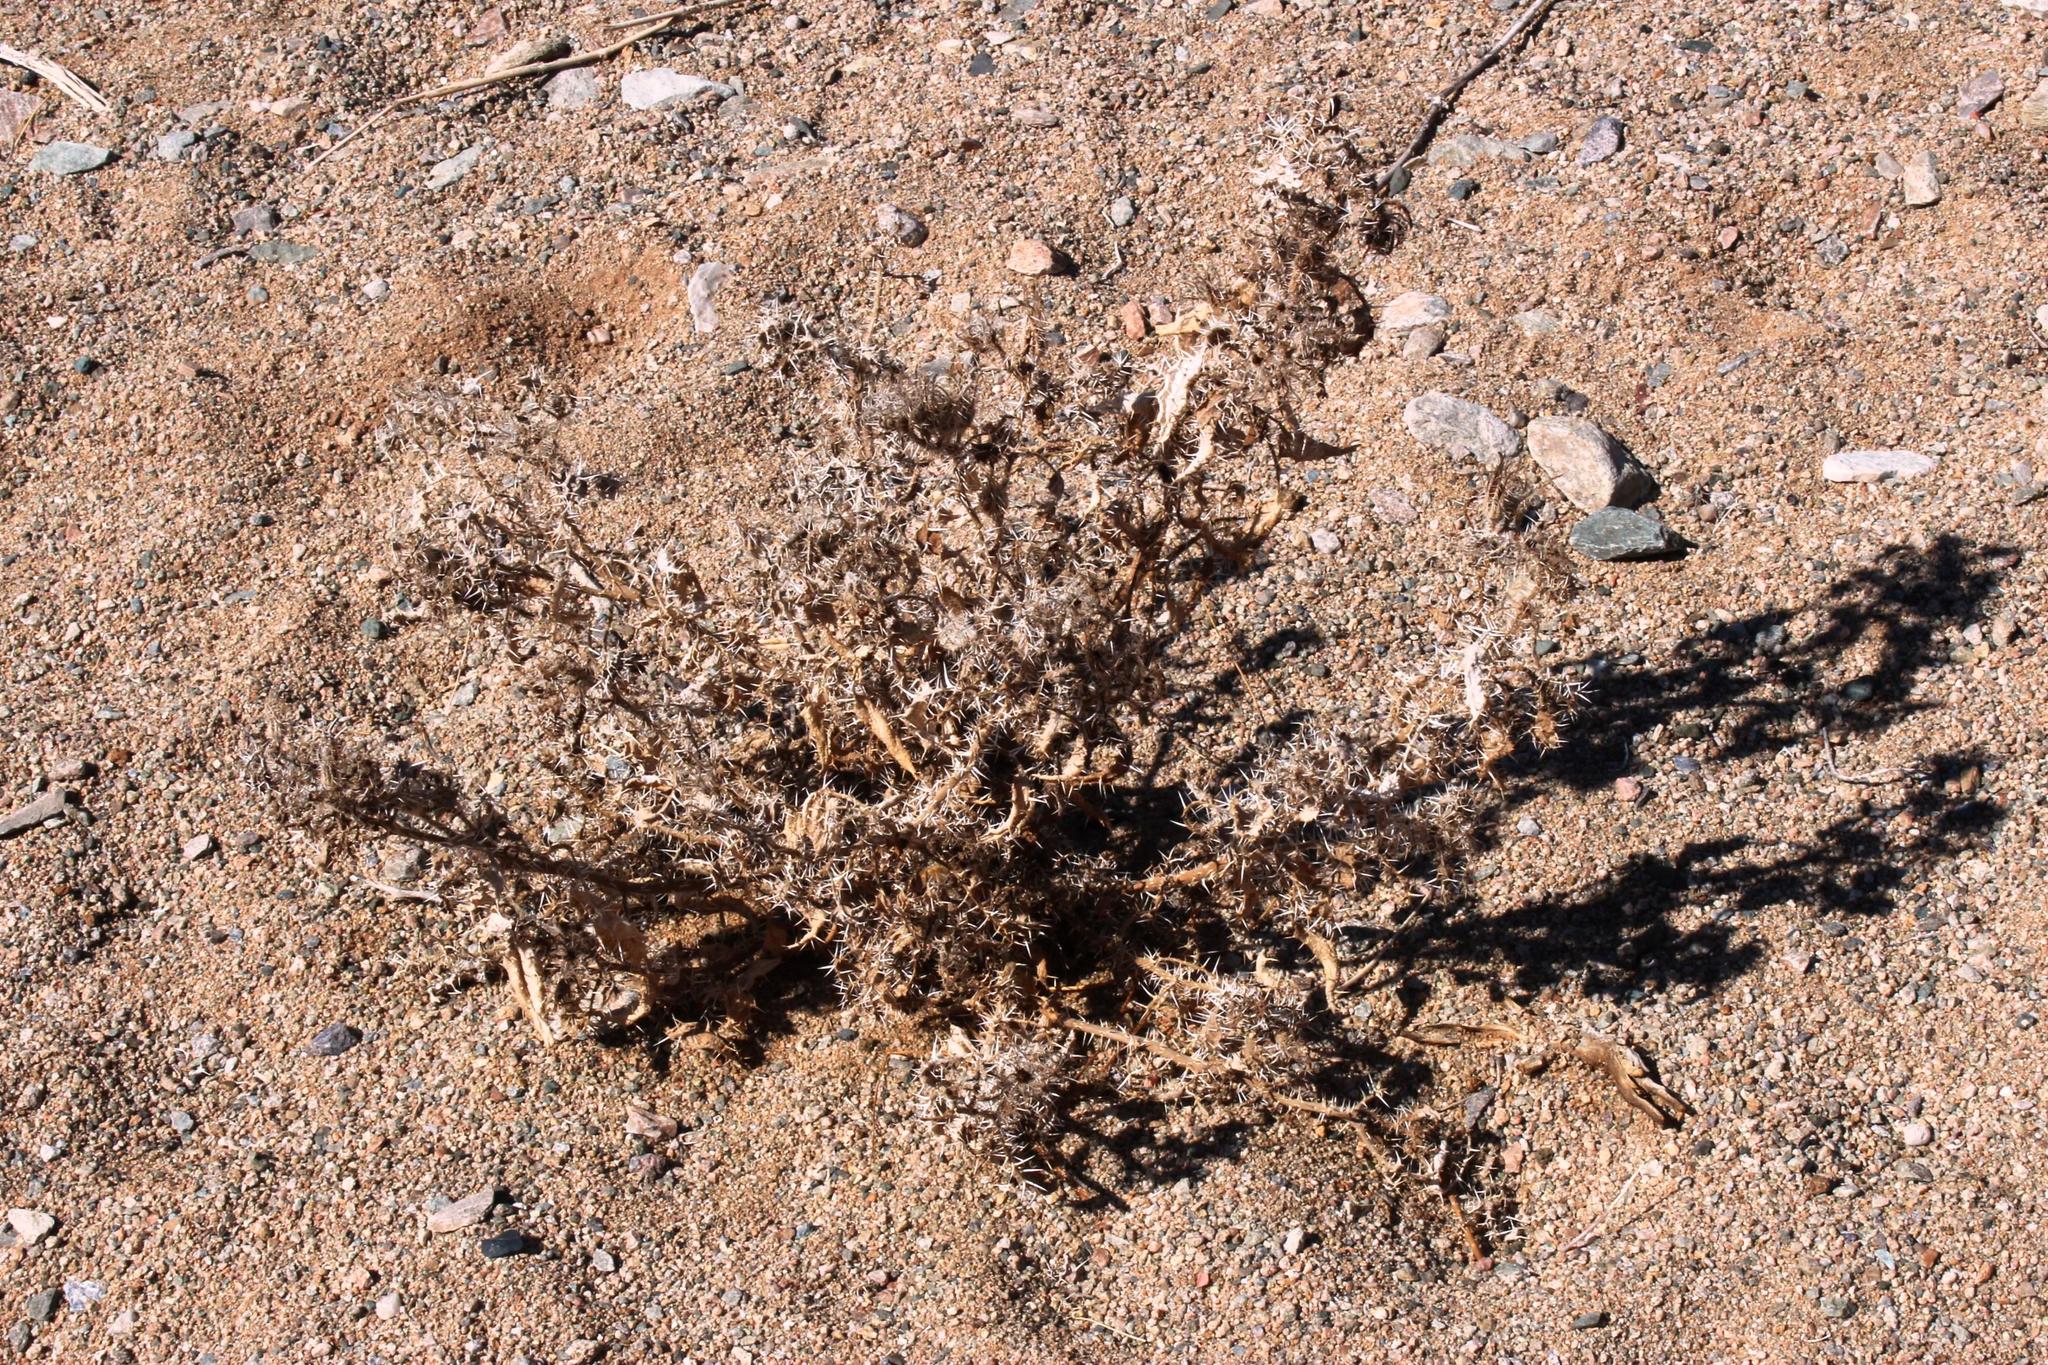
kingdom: Plantae
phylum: Tracheophyta
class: Magnoliopsida
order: Boraginales
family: Boraginaceae
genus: Codon
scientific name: Codon royenii
